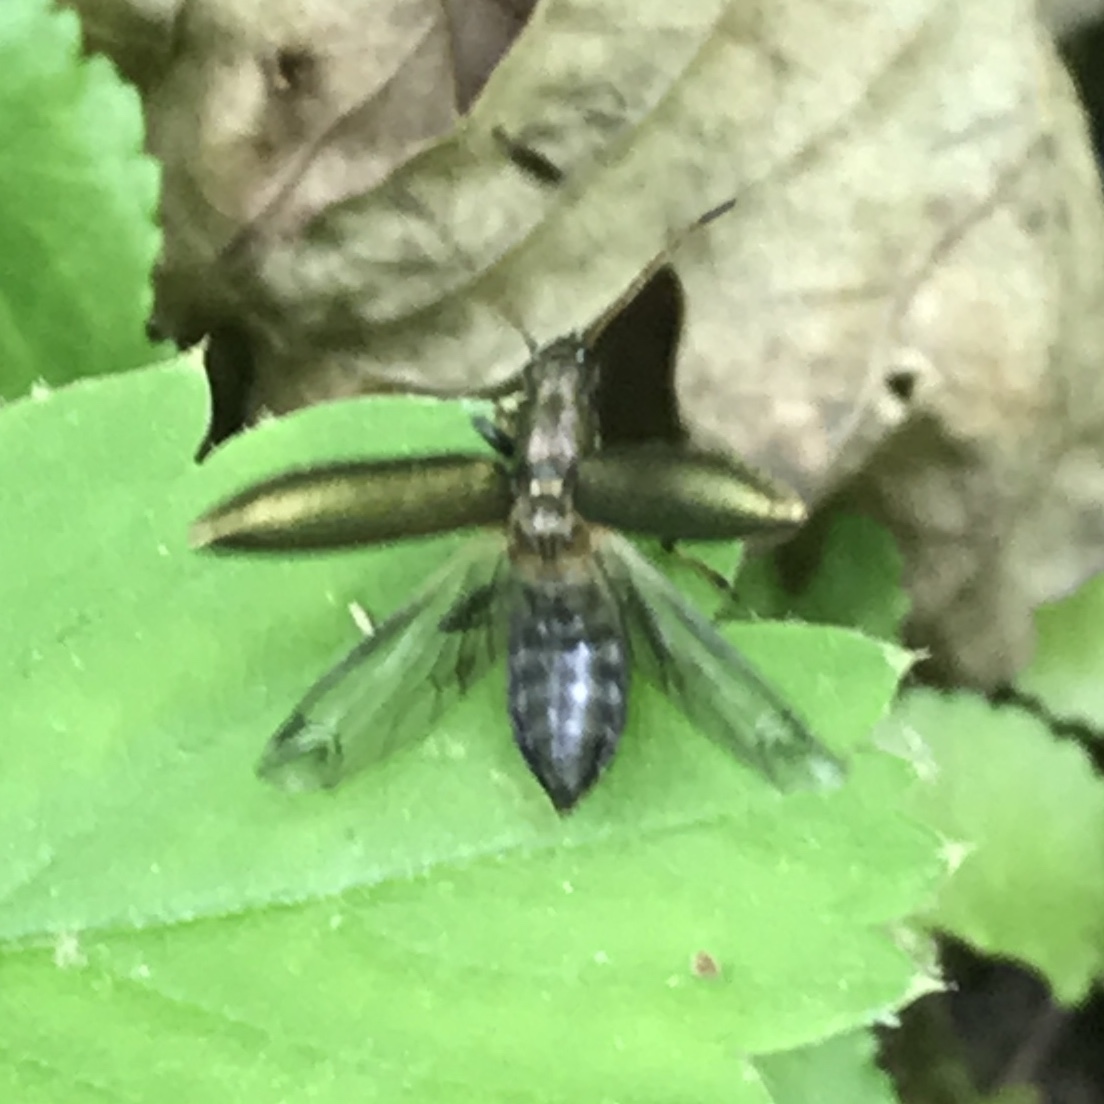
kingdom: Animalia
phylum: Arthropoda
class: Insecta
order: Coleoptera
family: Tenebrionidae
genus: Arthromacra
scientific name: Arthromacra aenea
